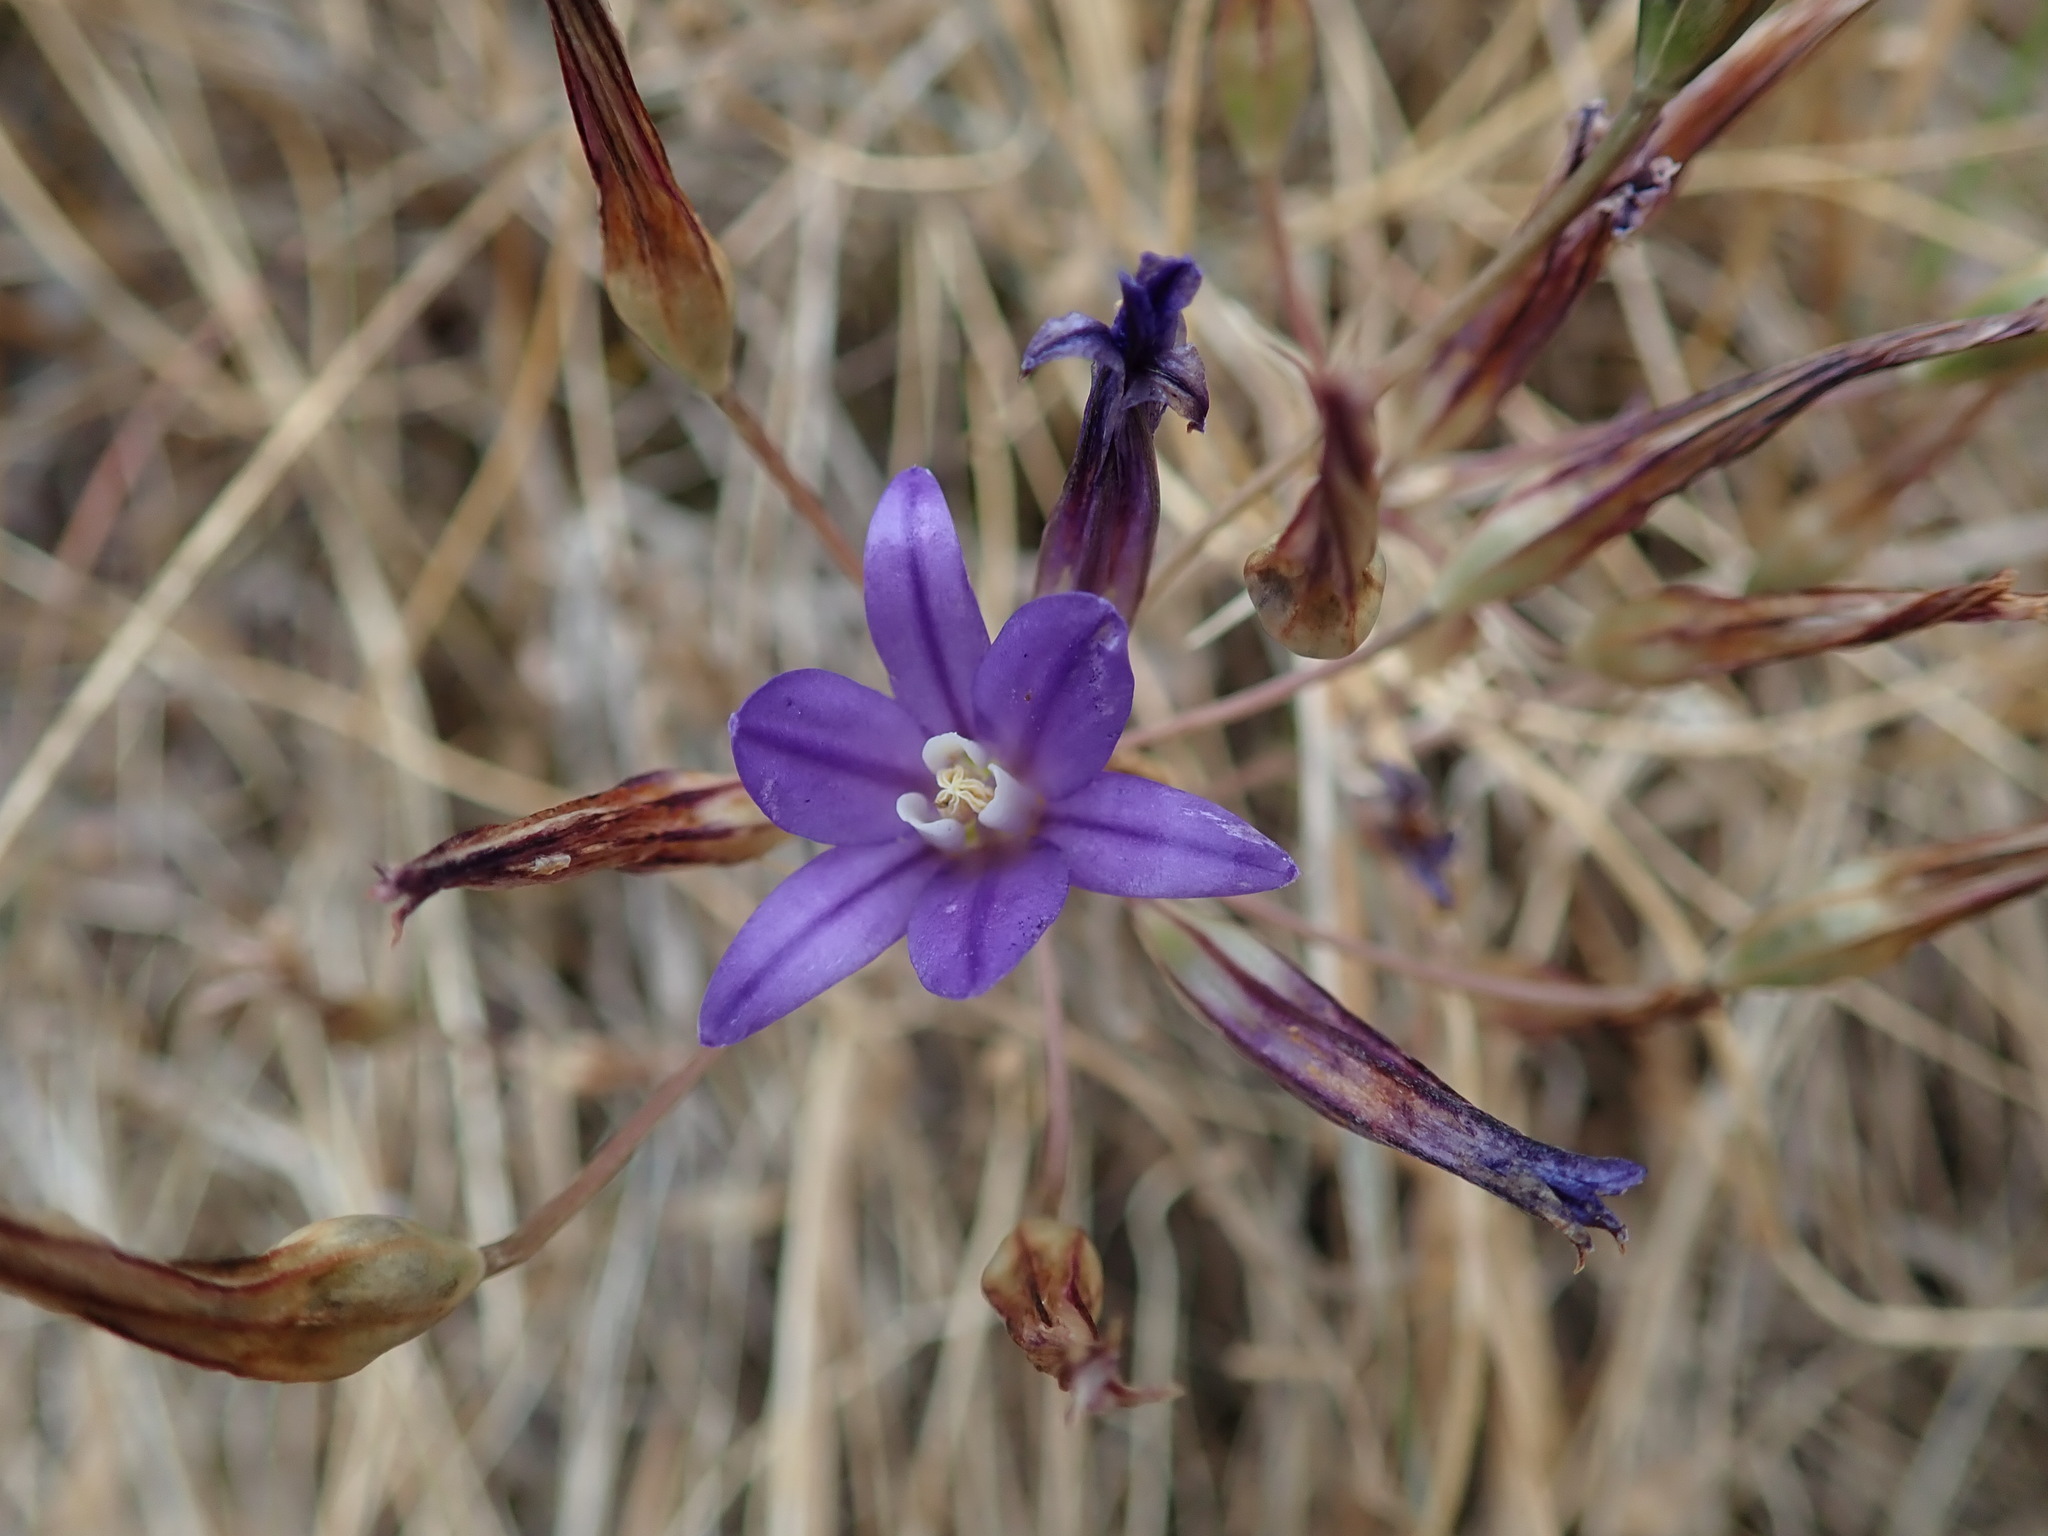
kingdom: Plantae
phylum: Tracheophyta
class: Liliopsida
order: Asparagales
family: Asparagaceae
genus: Brodiaea
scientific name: Brodiaea coronaria
